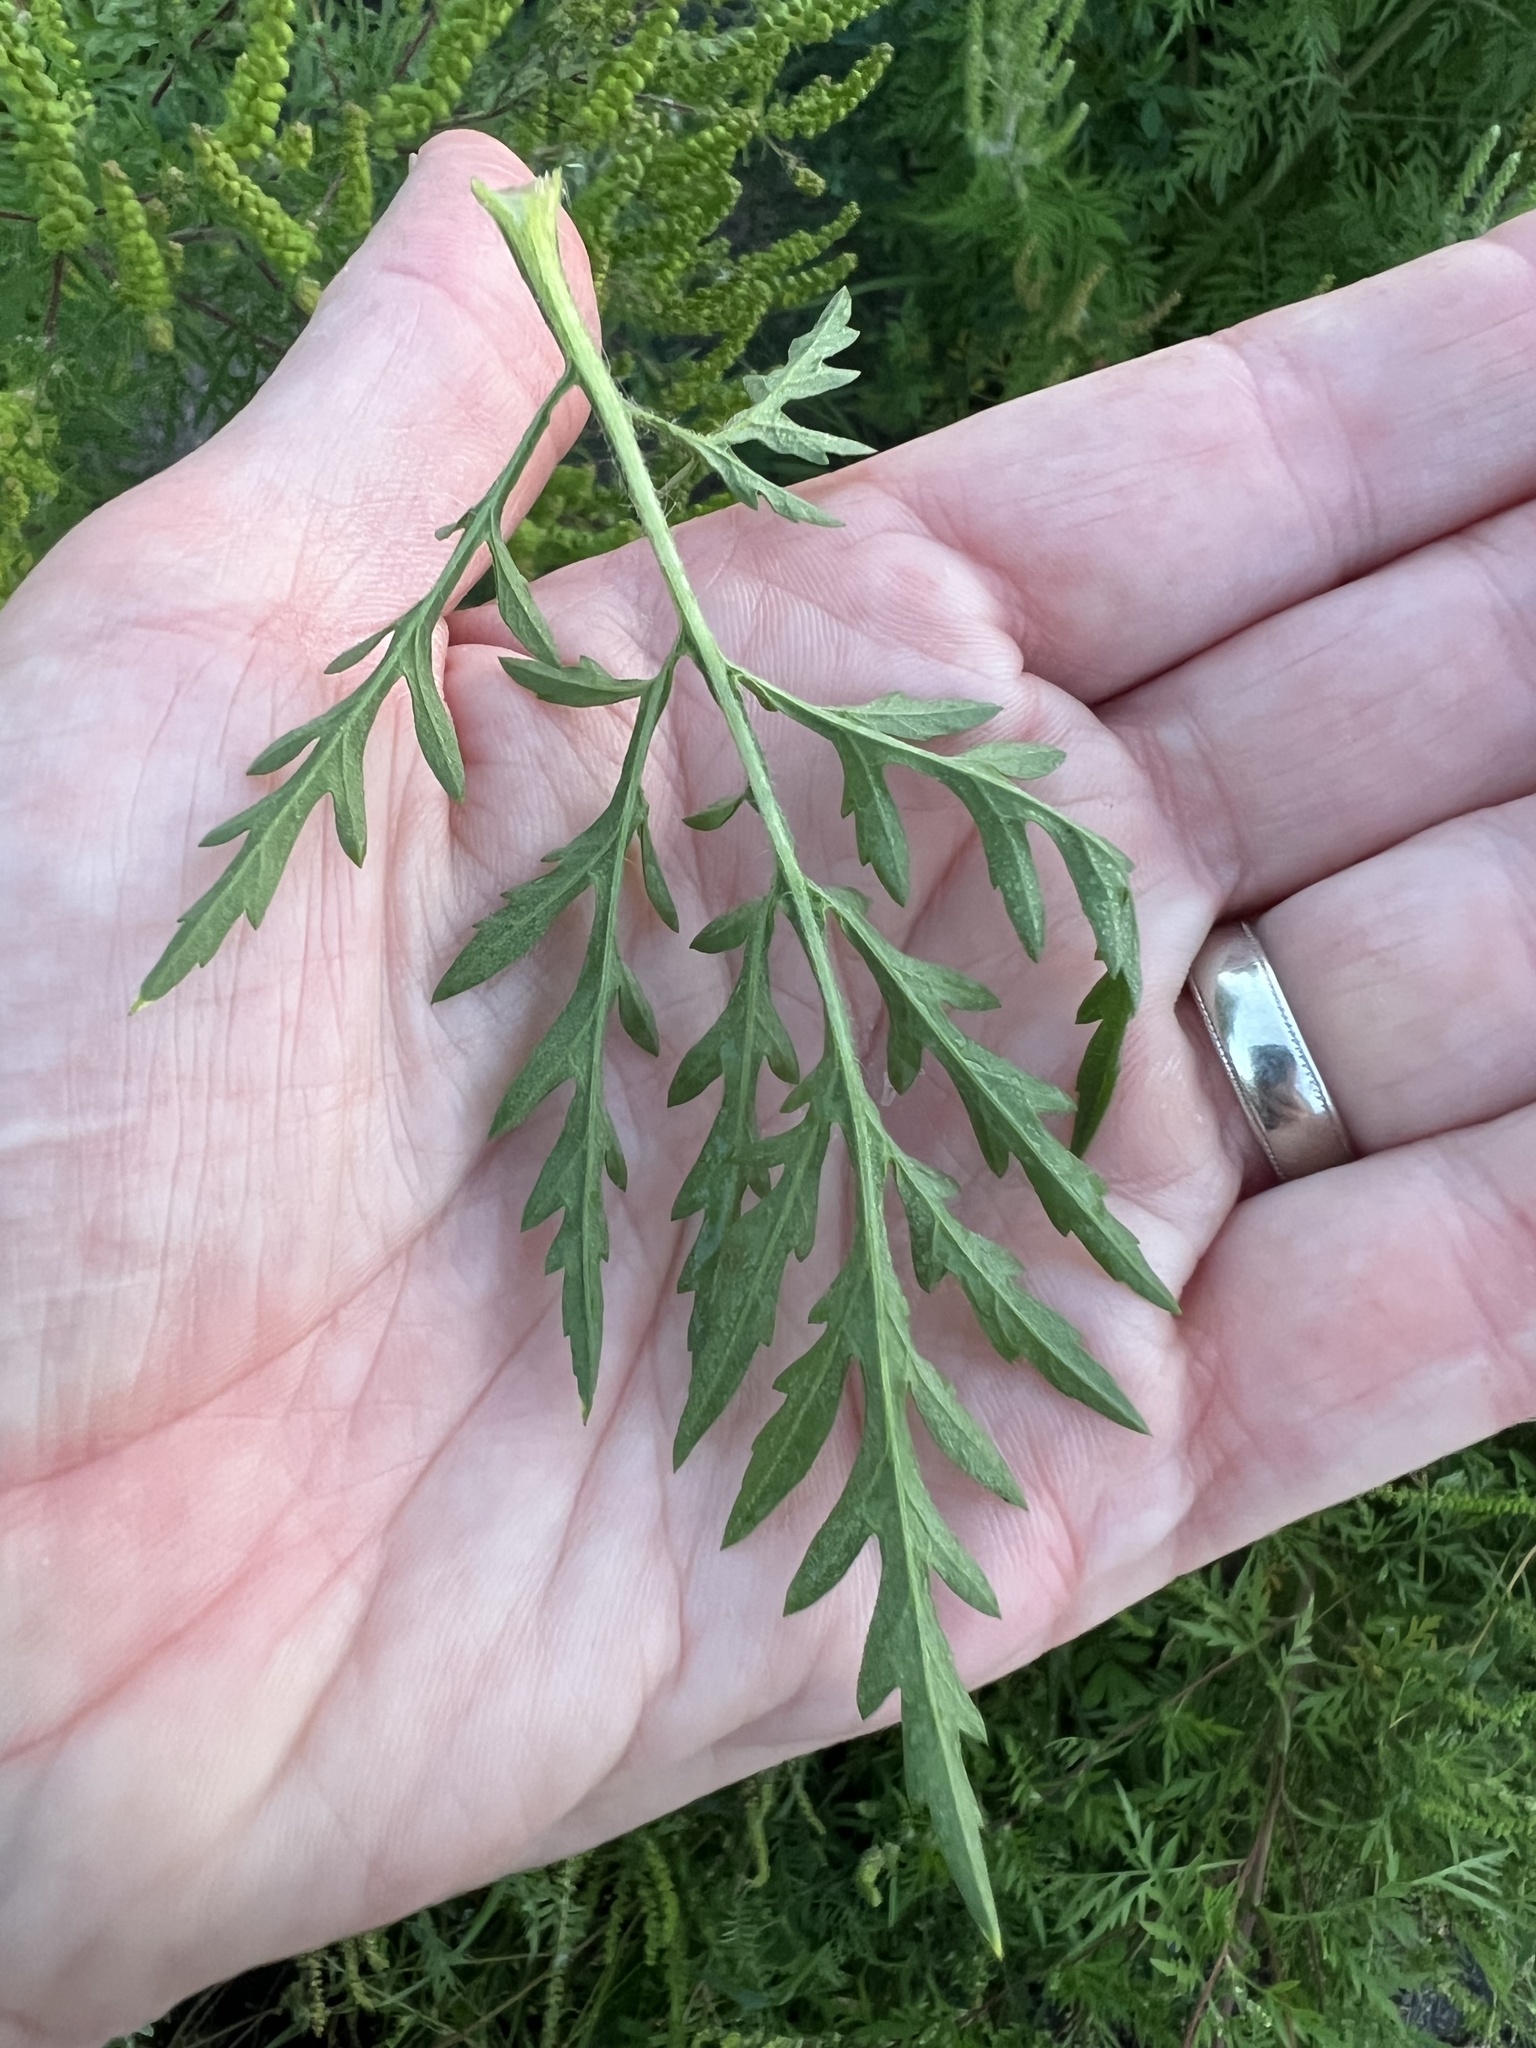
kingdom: Plantae
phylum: Tracheophyta
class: Magnoliopsida
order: Asterales
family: Asteraceae
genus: Ambrosia
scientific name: Ambrosia artemisiifolia
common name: Annual ragweed
